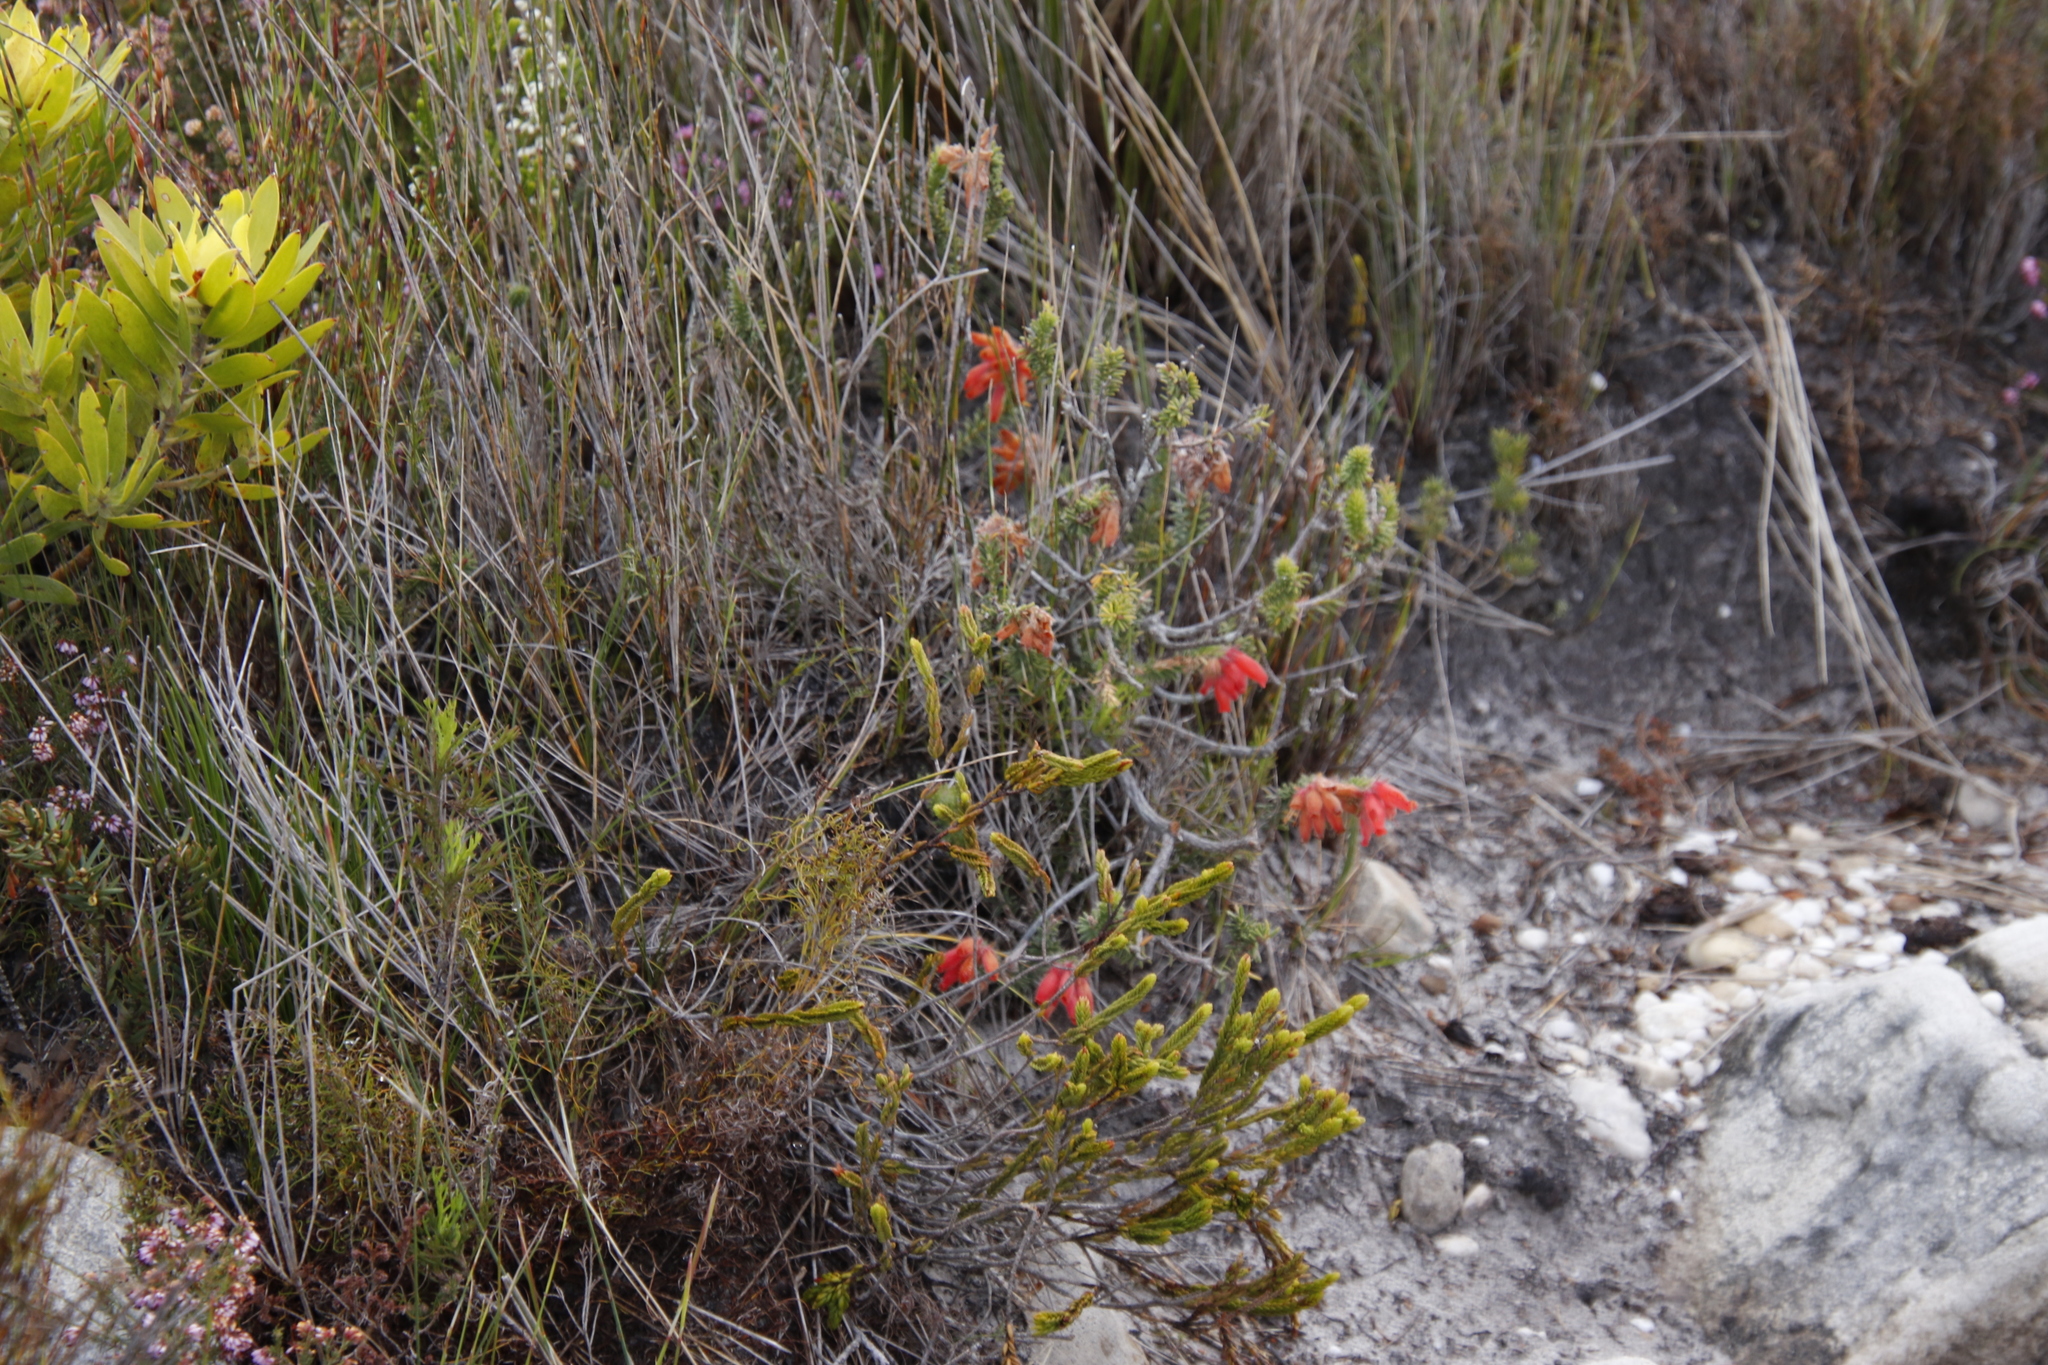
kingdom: Plantae
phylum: Tracheophyta
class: Magnoliopsida
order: Ericales
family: Ericaceae
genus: Erica
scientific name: Erica cerinthoides
